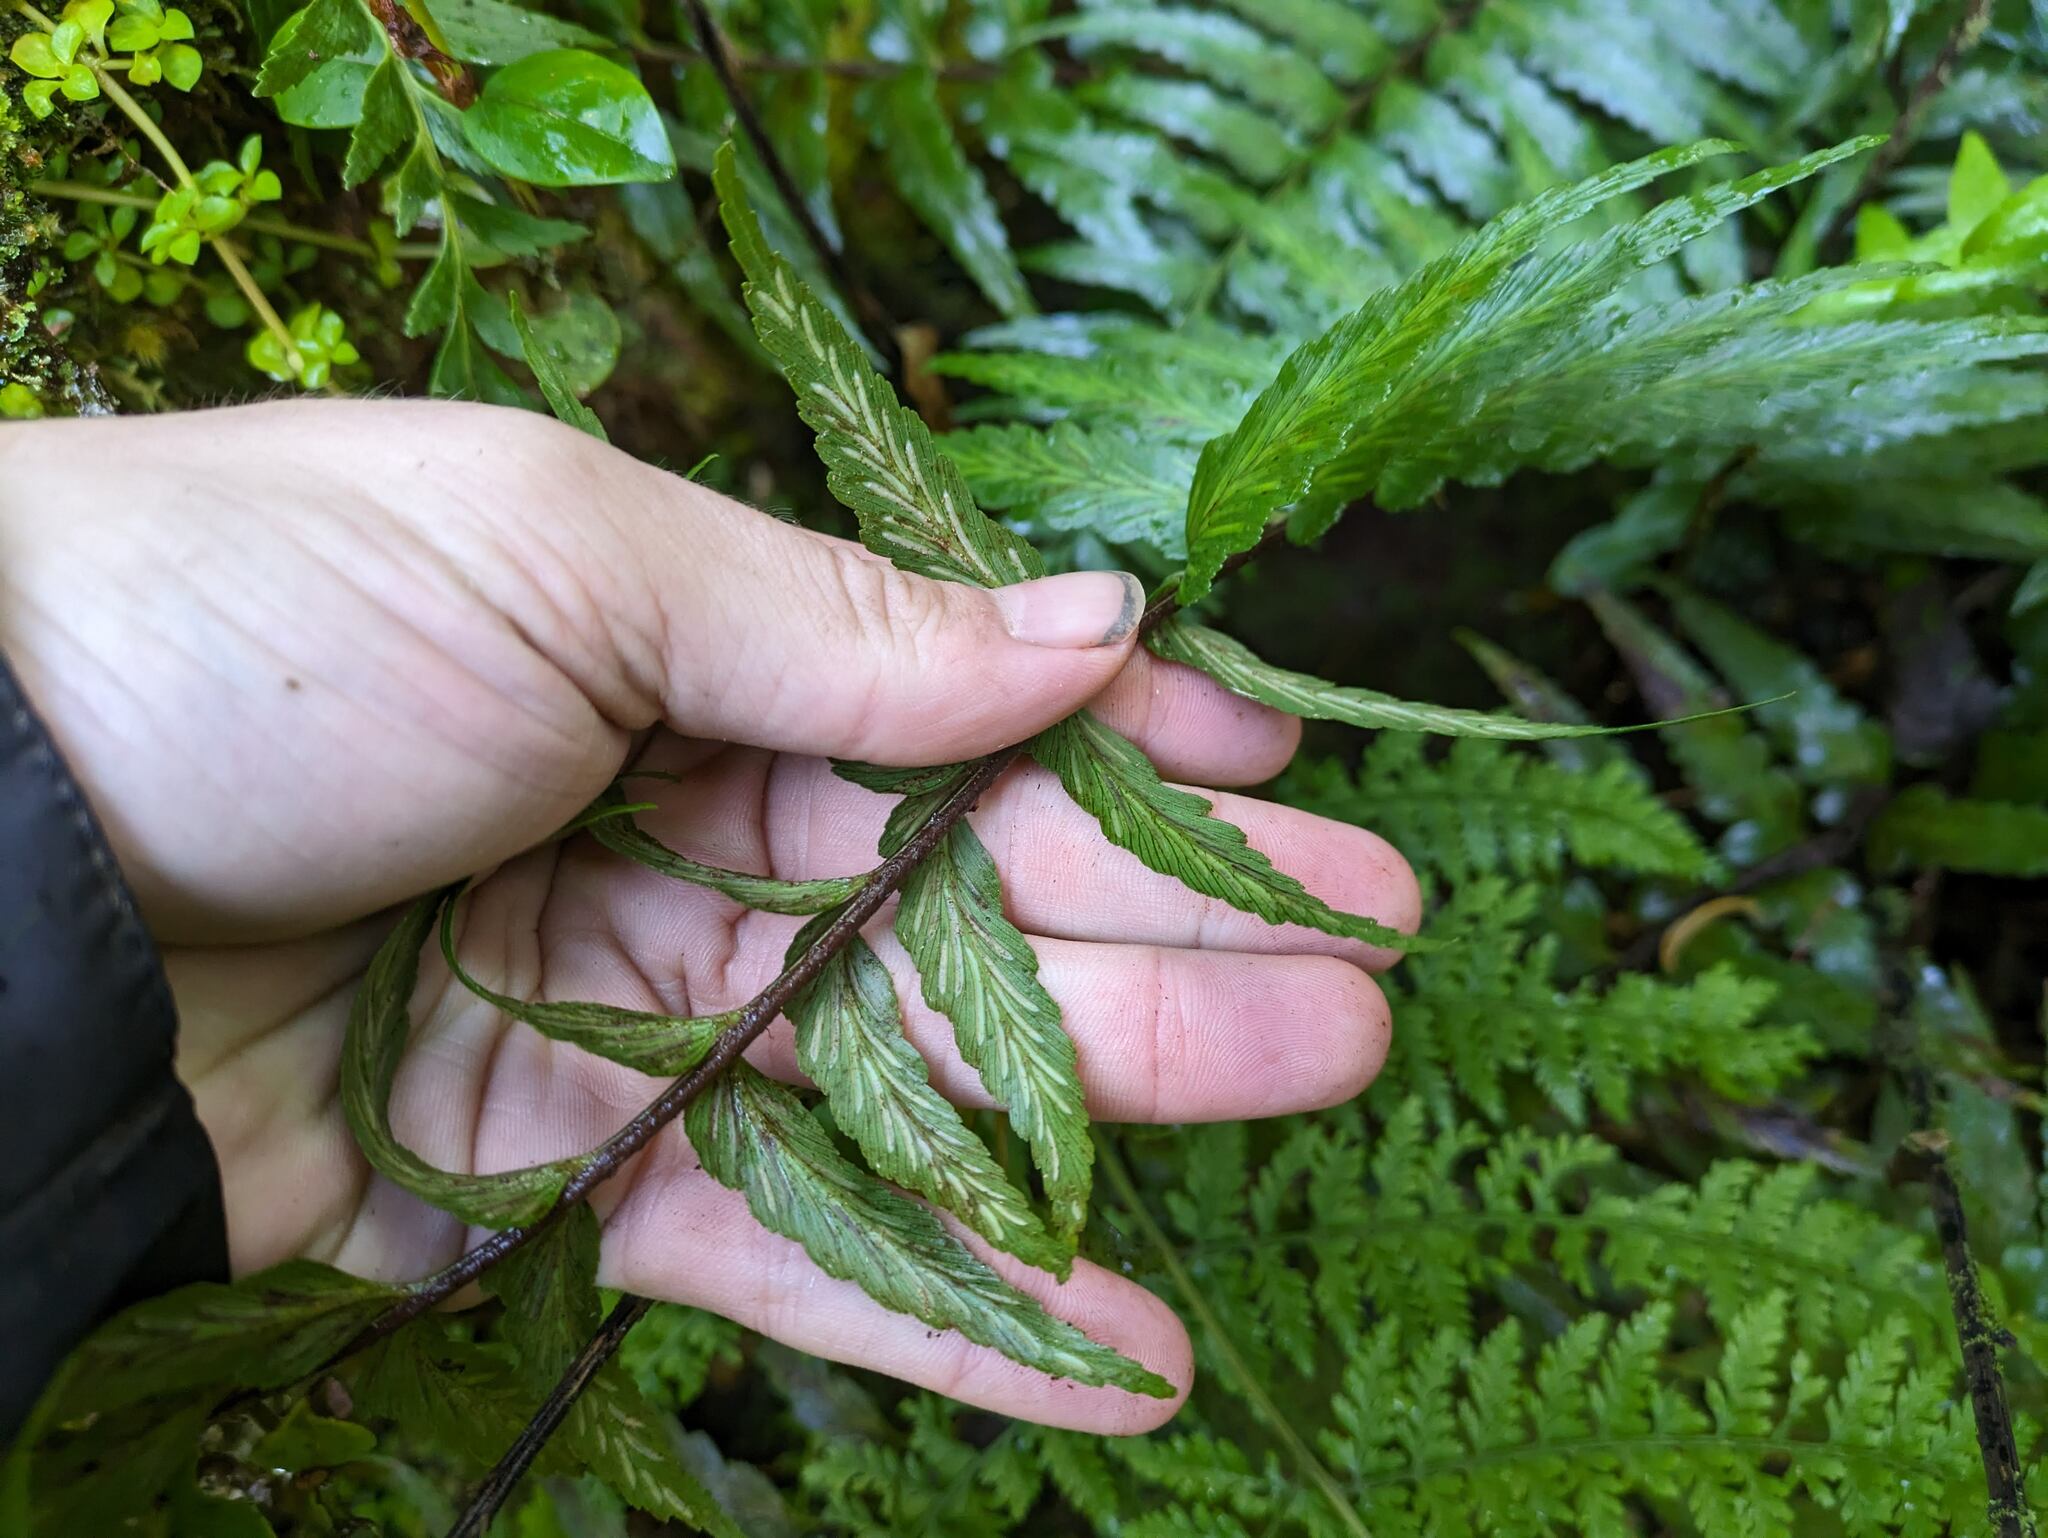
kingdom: Plantae
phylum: Tracheophyta
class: Polypodiopsida
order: Polypodiales
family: Aspleniaceae
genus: Asplenium
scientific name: Asplenium polyodon
